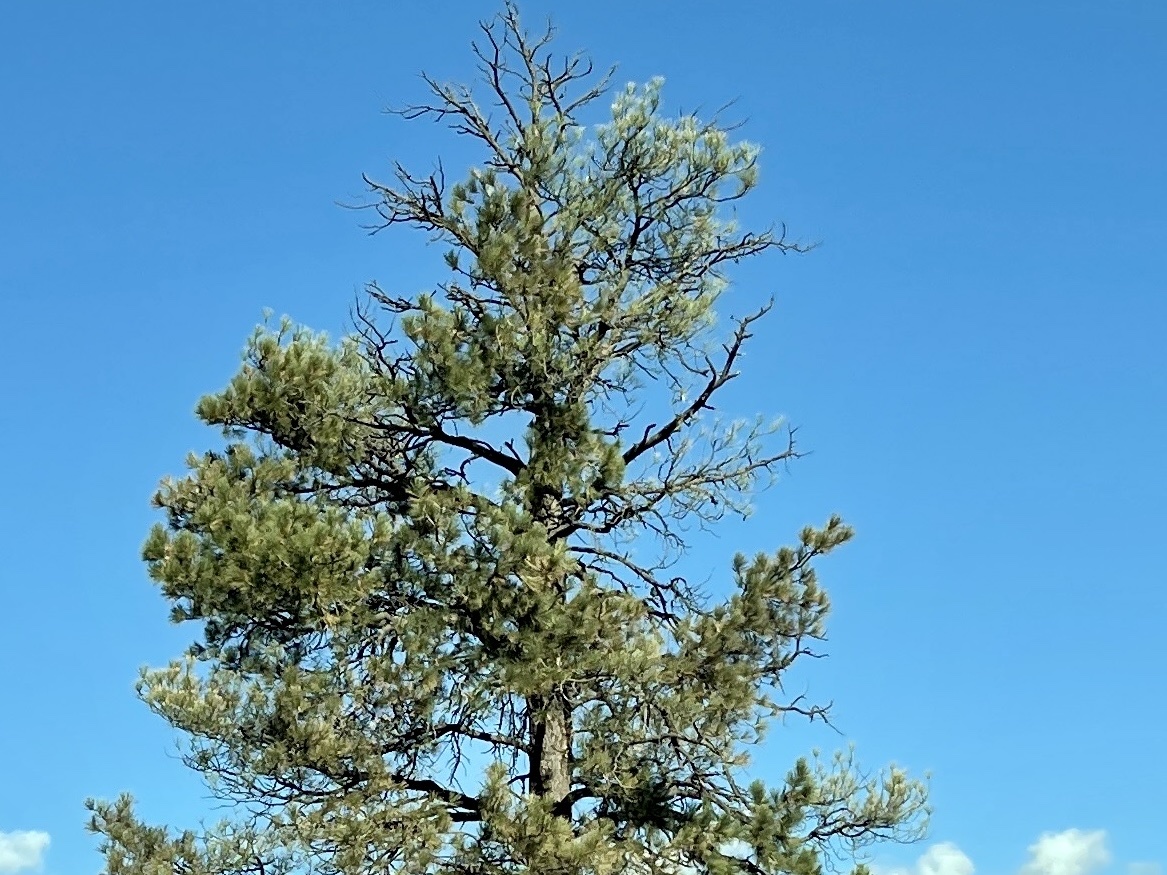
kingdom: Plantae
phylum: Tracheophyta
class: Pinopsida
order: Pinales
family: Pinaceae
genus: Pinus
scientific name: Pinus ponderosa
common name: Western yellow-pine
